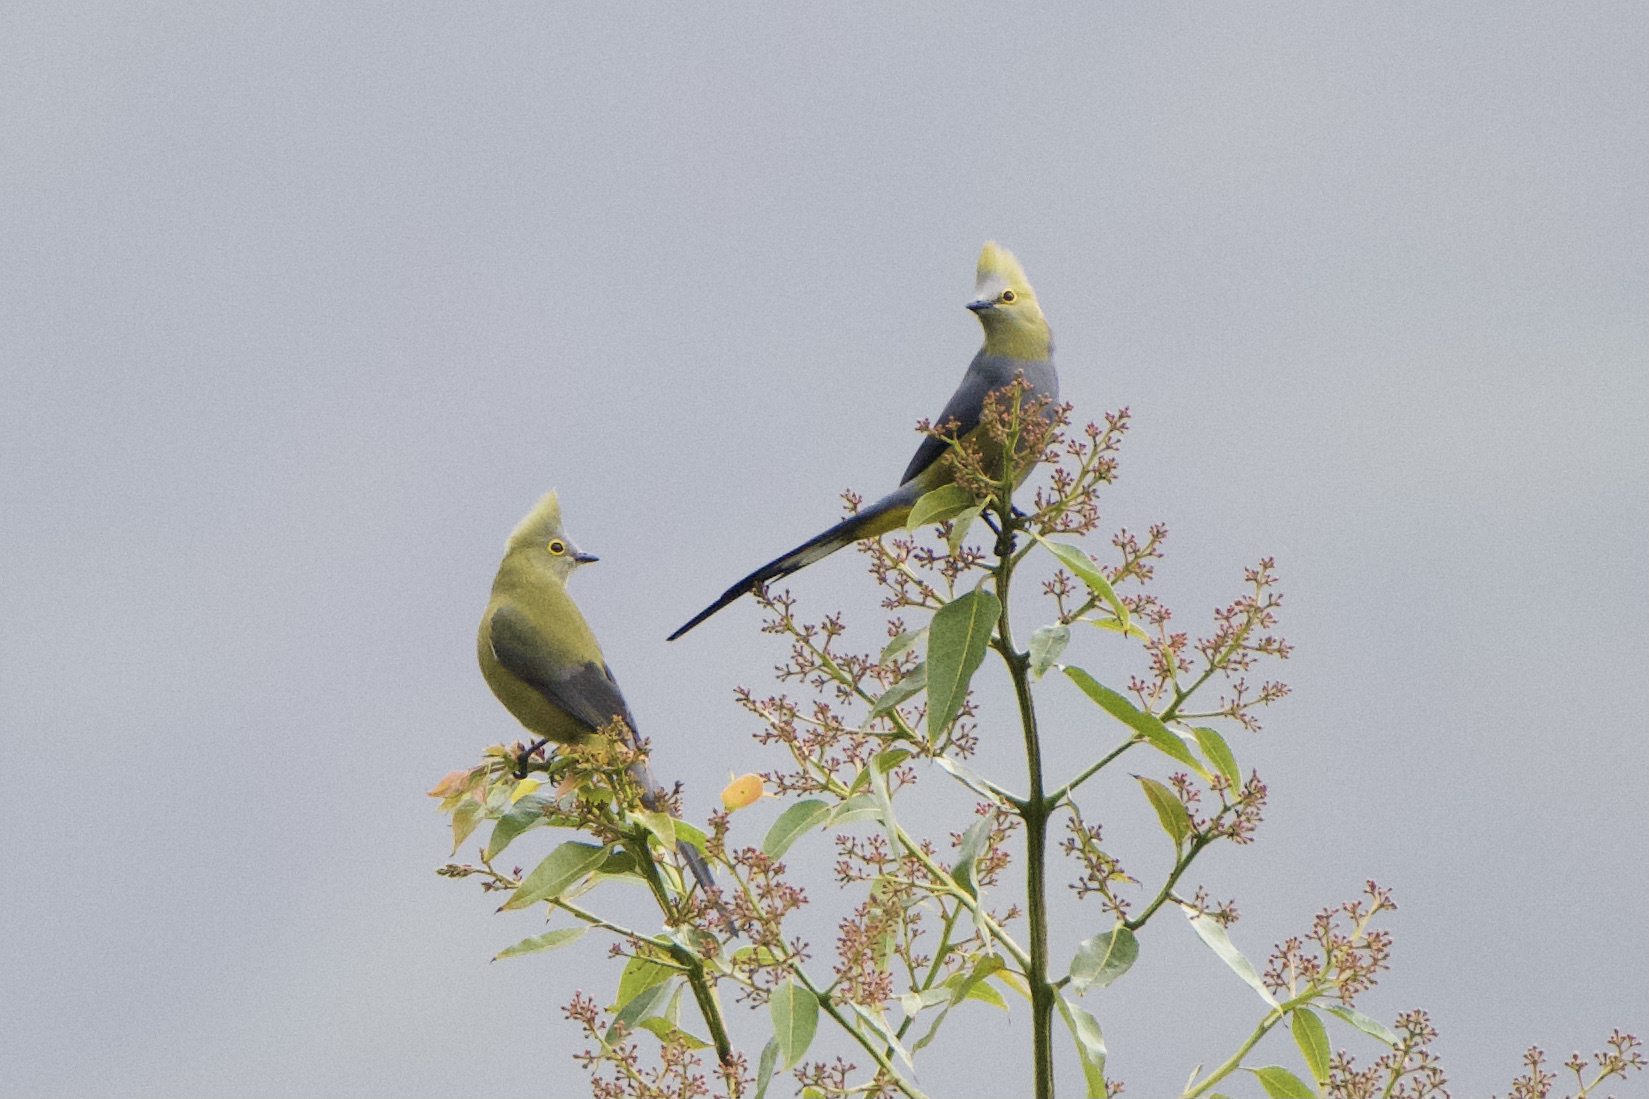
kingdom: Animalia
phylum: Chordata
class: Aves
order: Passeriformes
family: Ptilogonatidae
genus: Ptilogonys
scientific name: Ptilogonys caudatus
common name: Long-tailed silky-flycatcher
